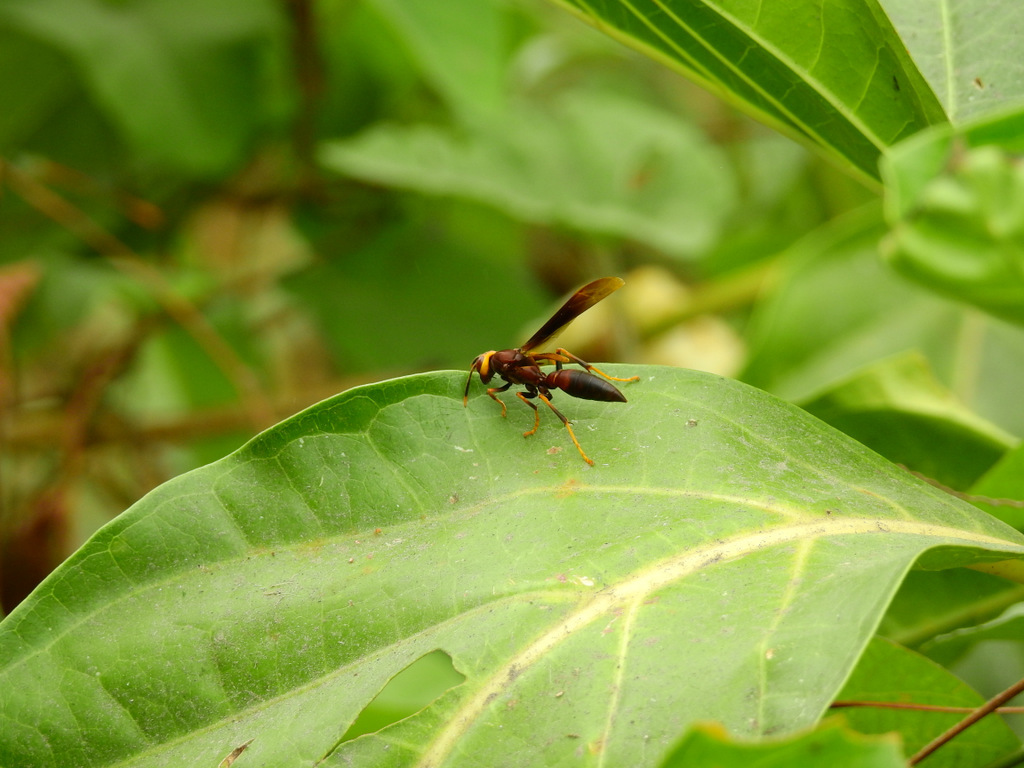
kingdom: Animalia
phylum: Arthropoda
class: Insecta
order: Hymenoptera
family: Eumenidae
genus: Polistes
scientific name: Polistes infuscatus
